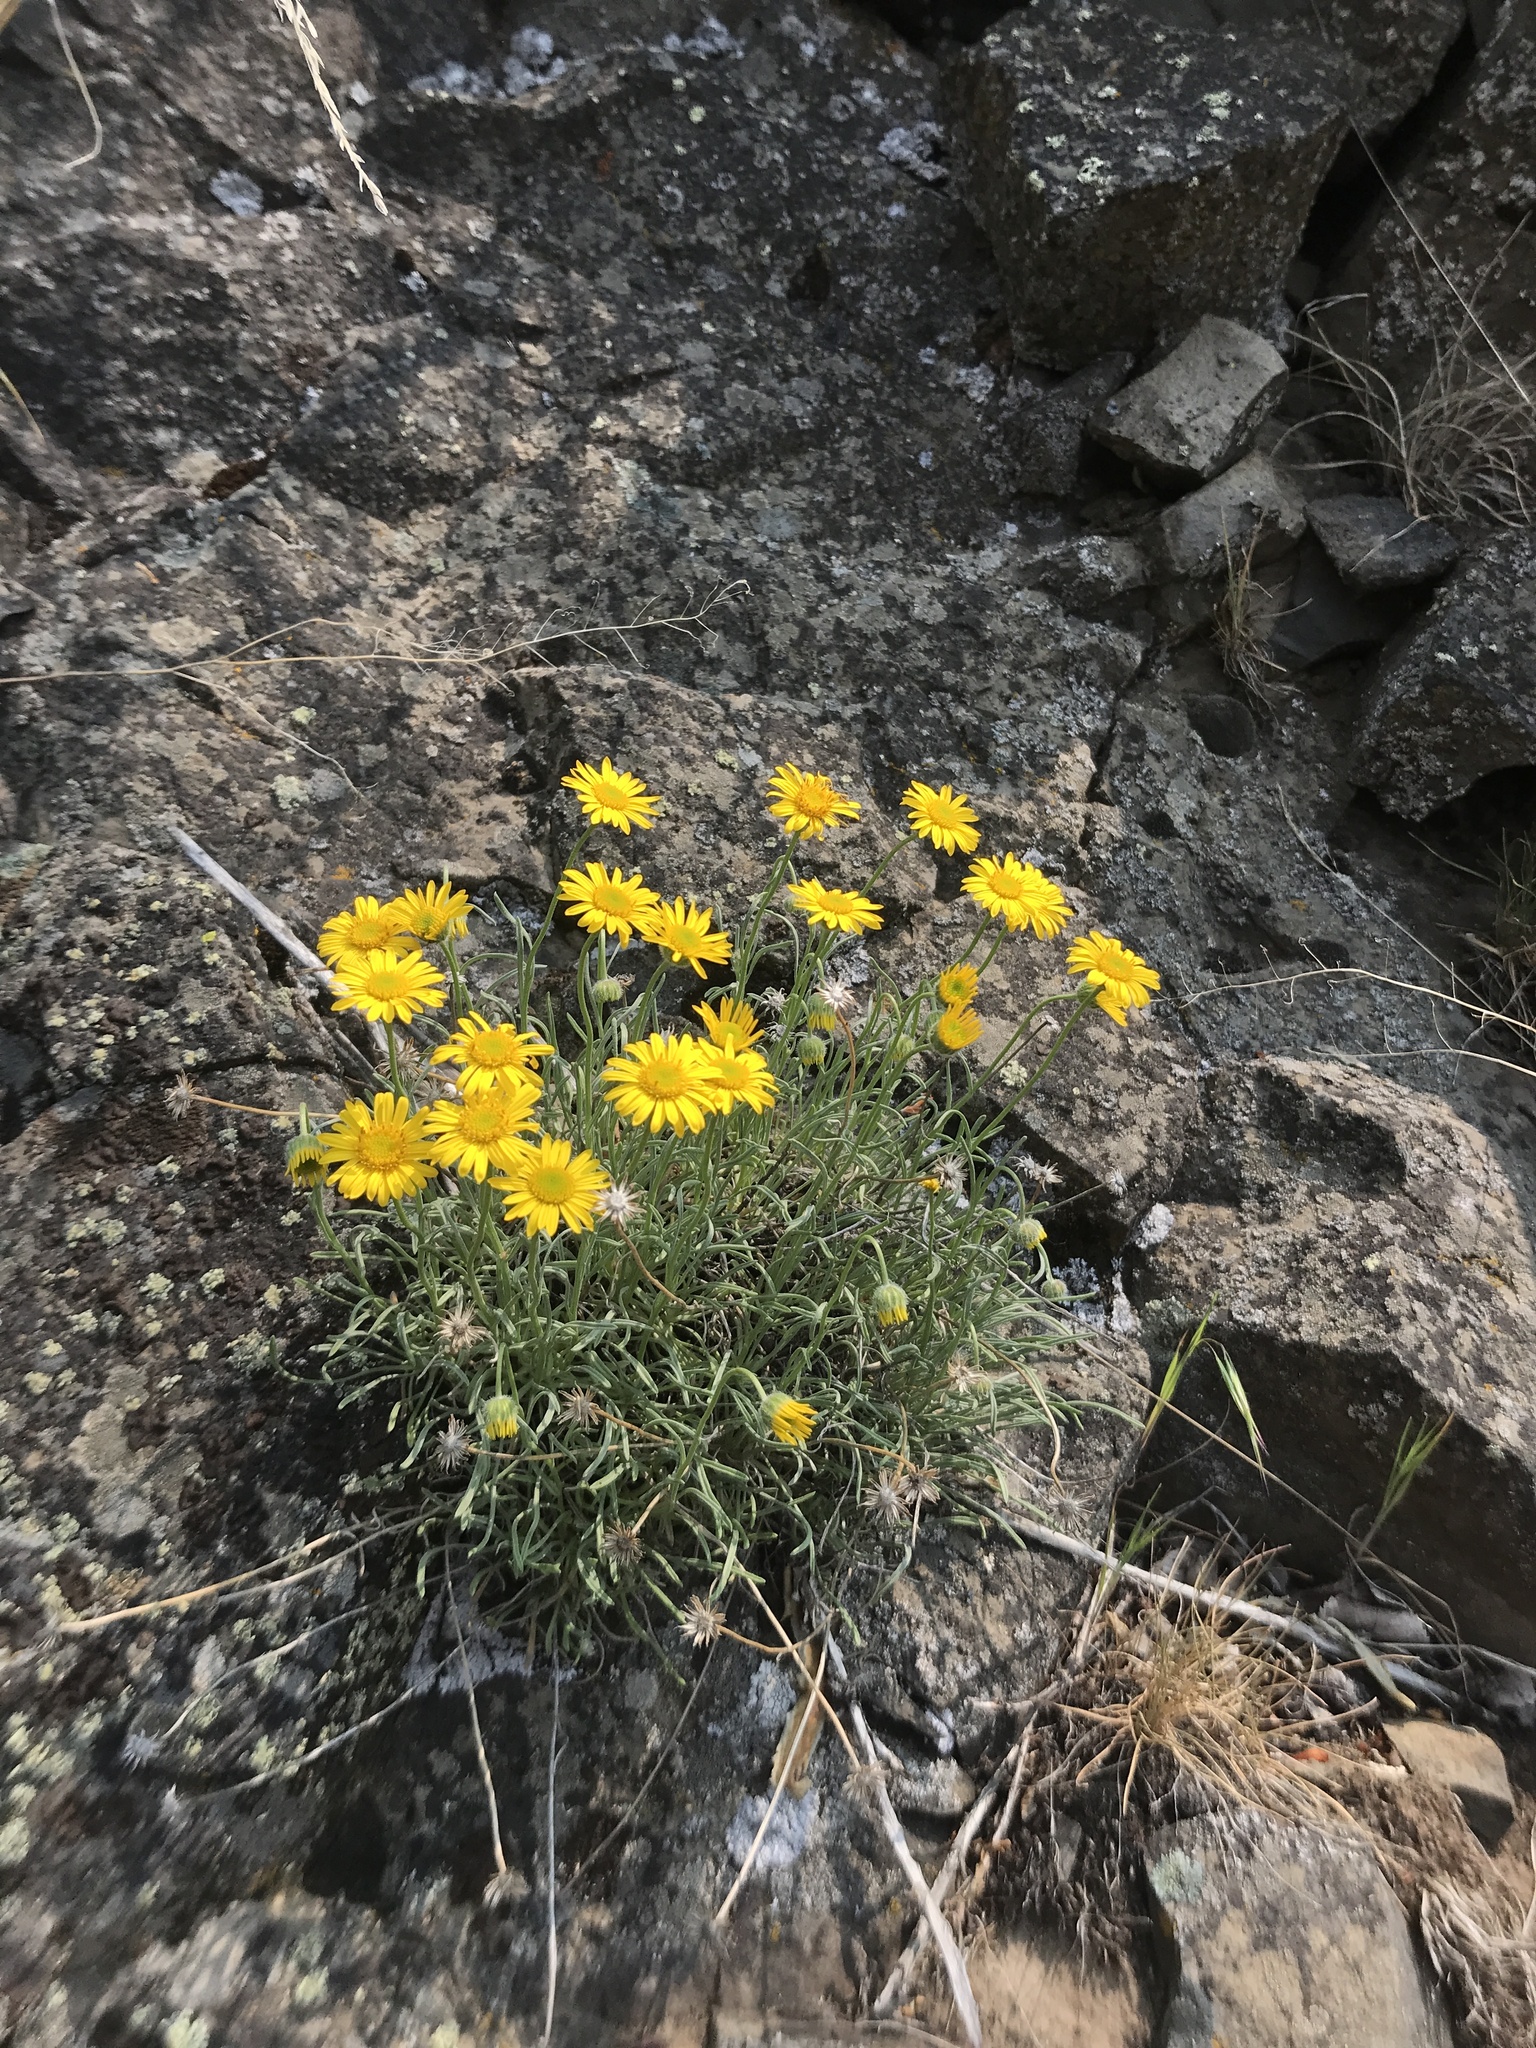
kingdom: Plantae
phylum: Tracheophyta
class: Magnoliopsida
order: Asterales
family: Asteraceae
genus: Erigeron
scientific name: Erigeron linearis
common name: Desert yellow fleabane
